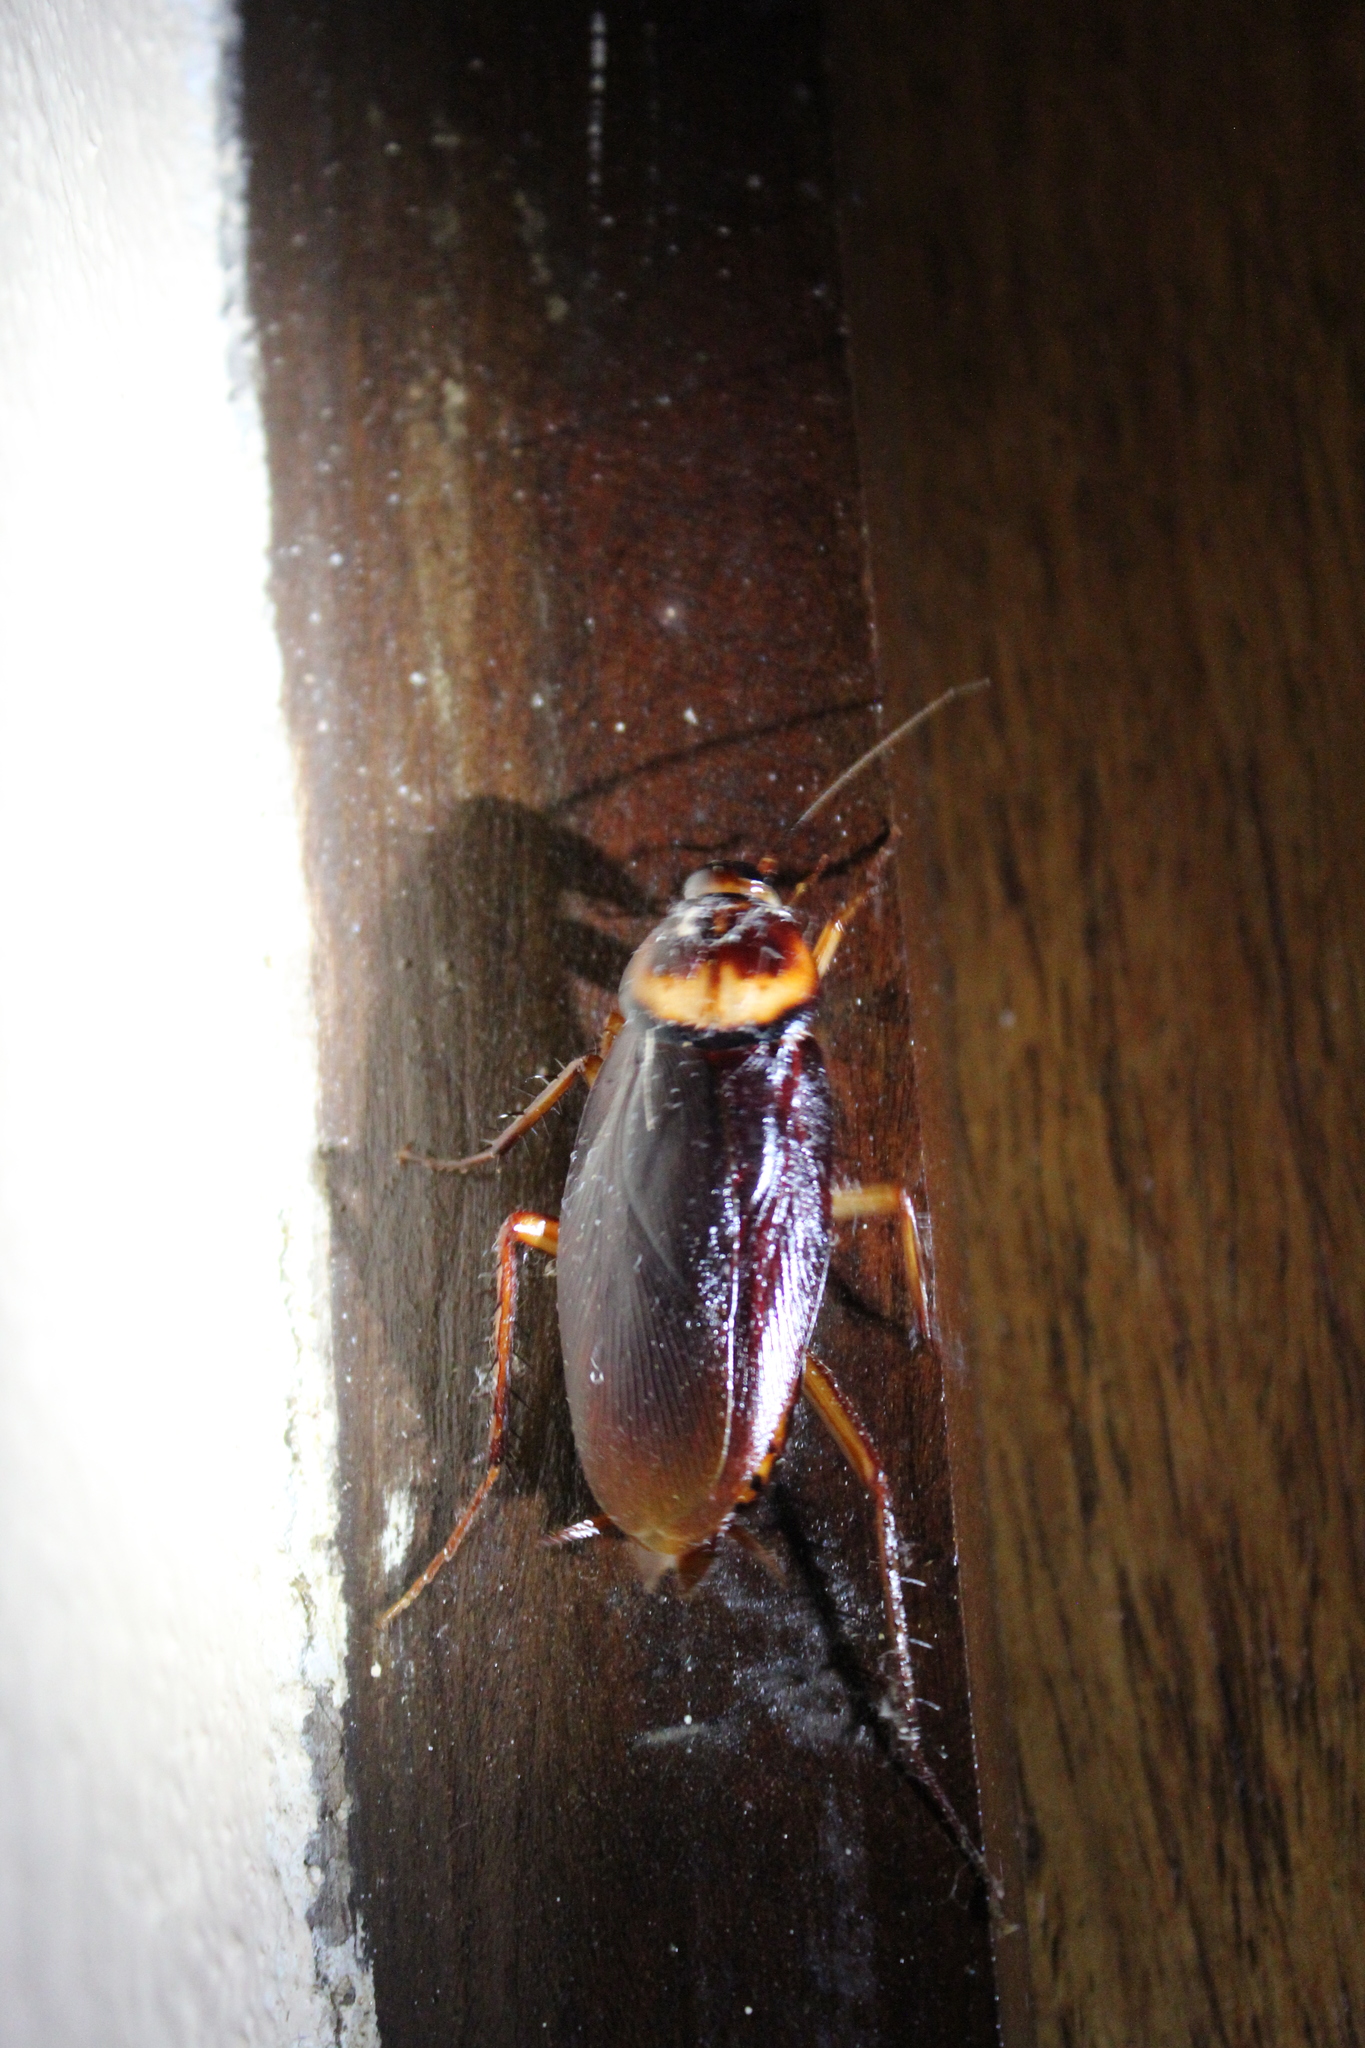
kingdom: Animalia
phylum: Arthropoda
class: Insecta
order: Blattodea
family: Blattidae
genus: Periplaneta
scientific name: Periplaneta americana
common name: American cockroach
